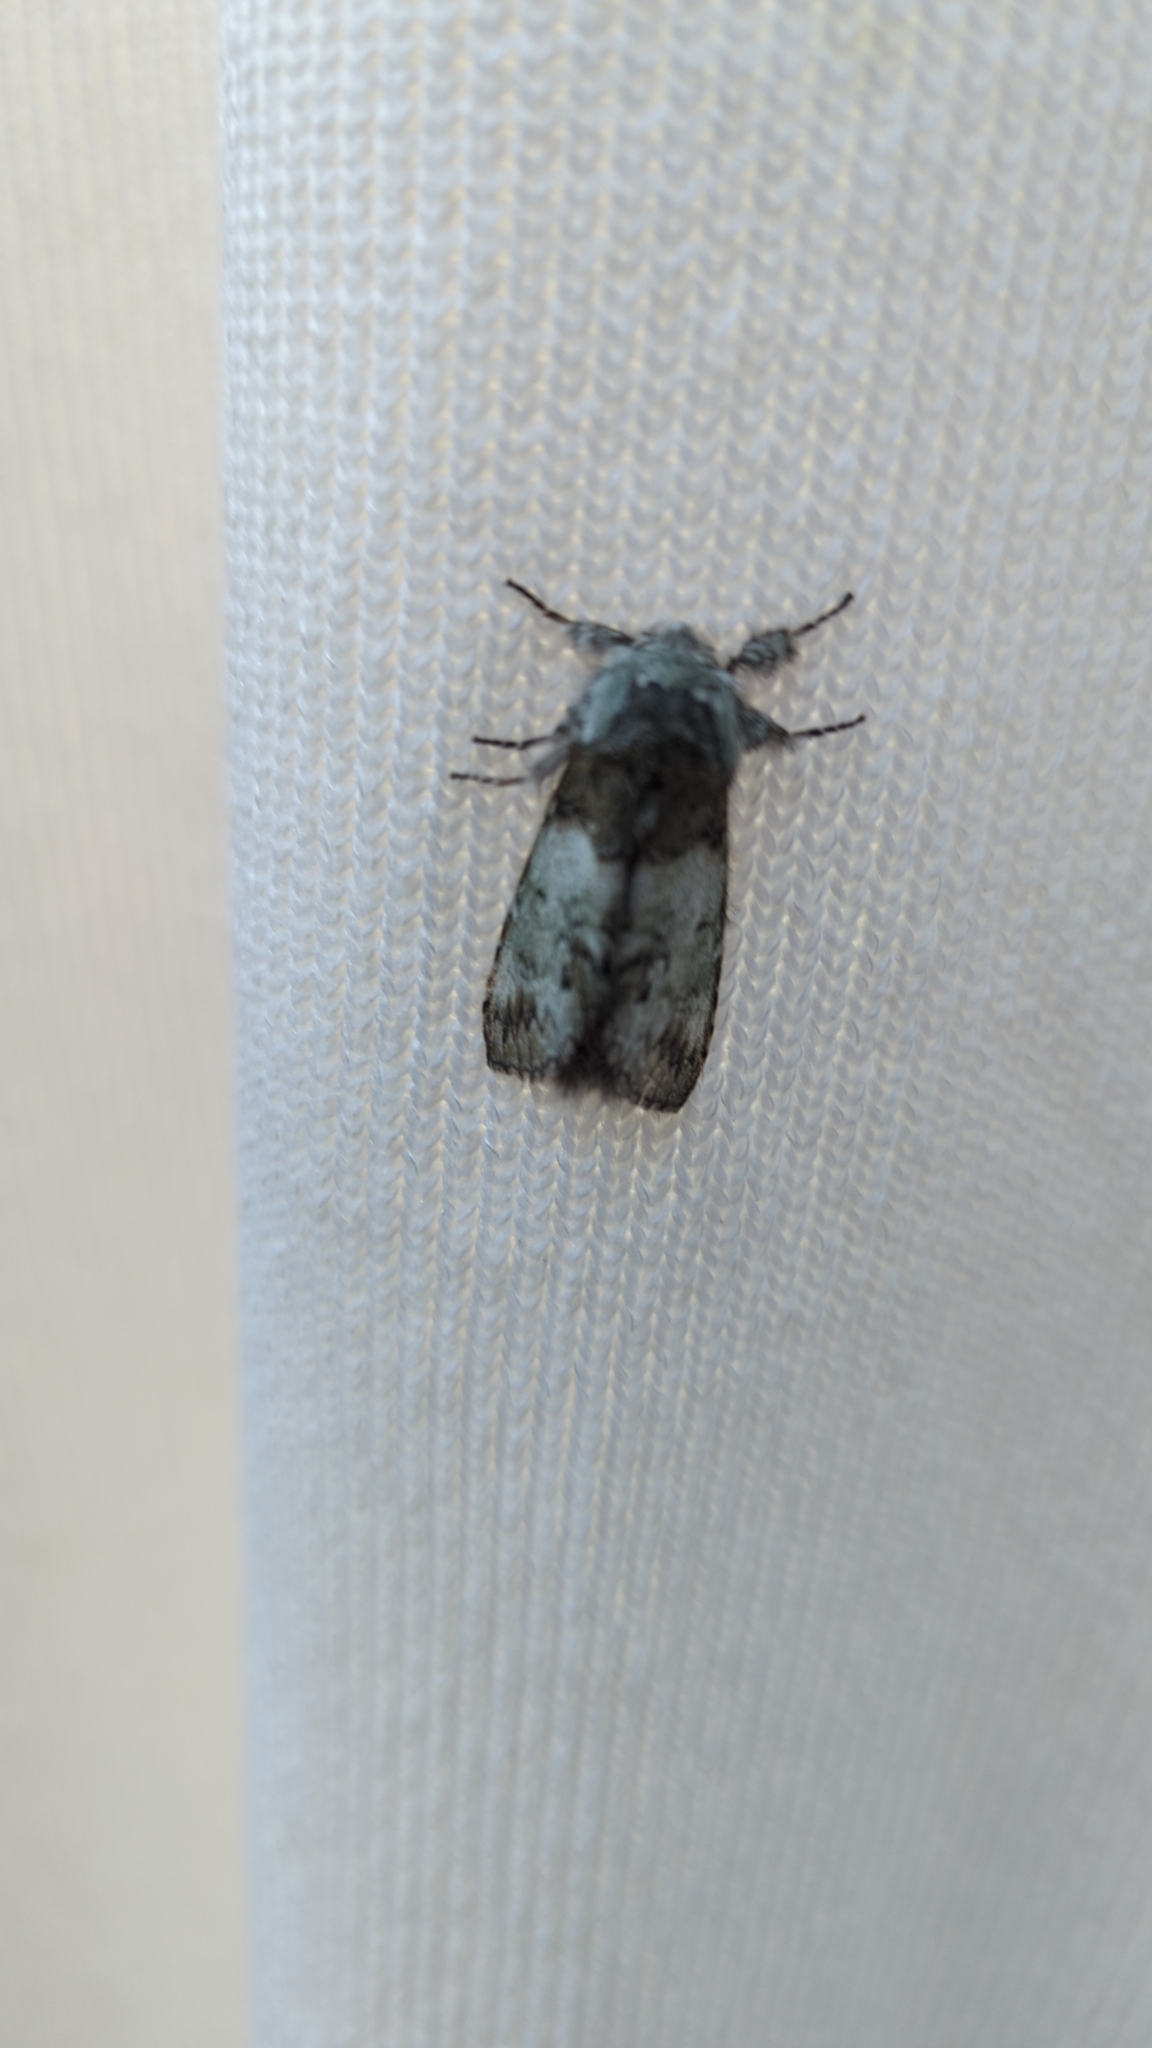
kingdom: Animalia
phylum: Arthropoda
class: Insecta
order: Lepidoptera
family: Notodontidae
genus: Macrurocampa
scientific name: Macrurocampa marthesia
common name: Mottled prominent
